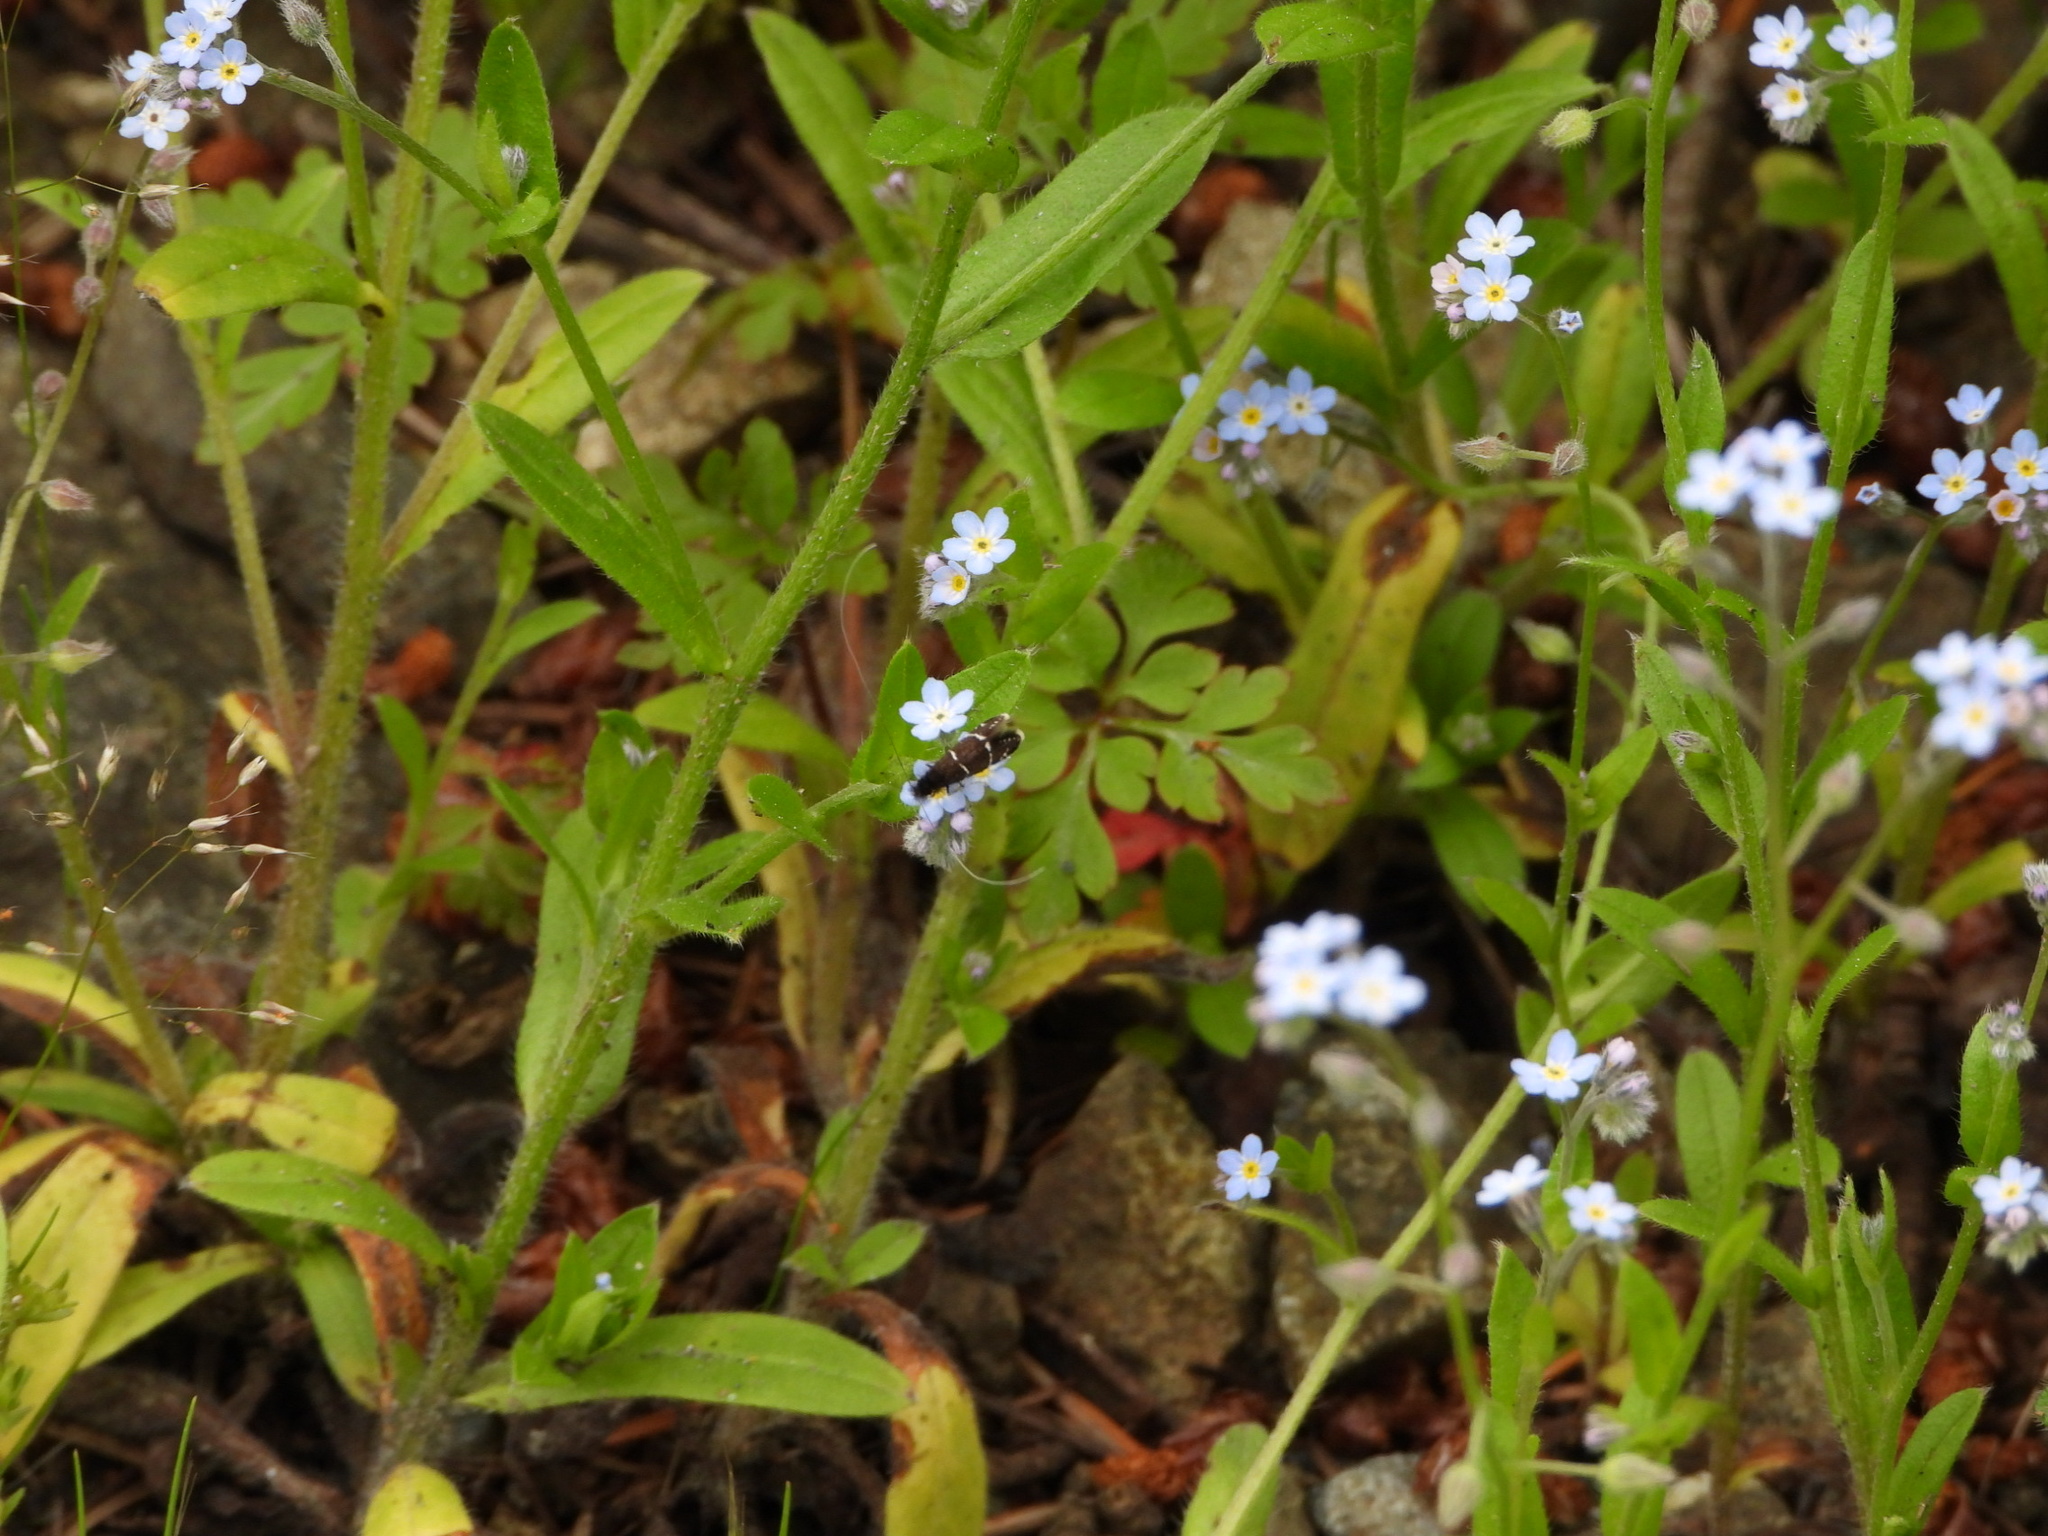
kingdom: Animalia
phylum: Arthropoda
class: Insecta
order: Lepidoptera
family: Adelidae
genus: Adela
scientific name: Adela septentrionella
